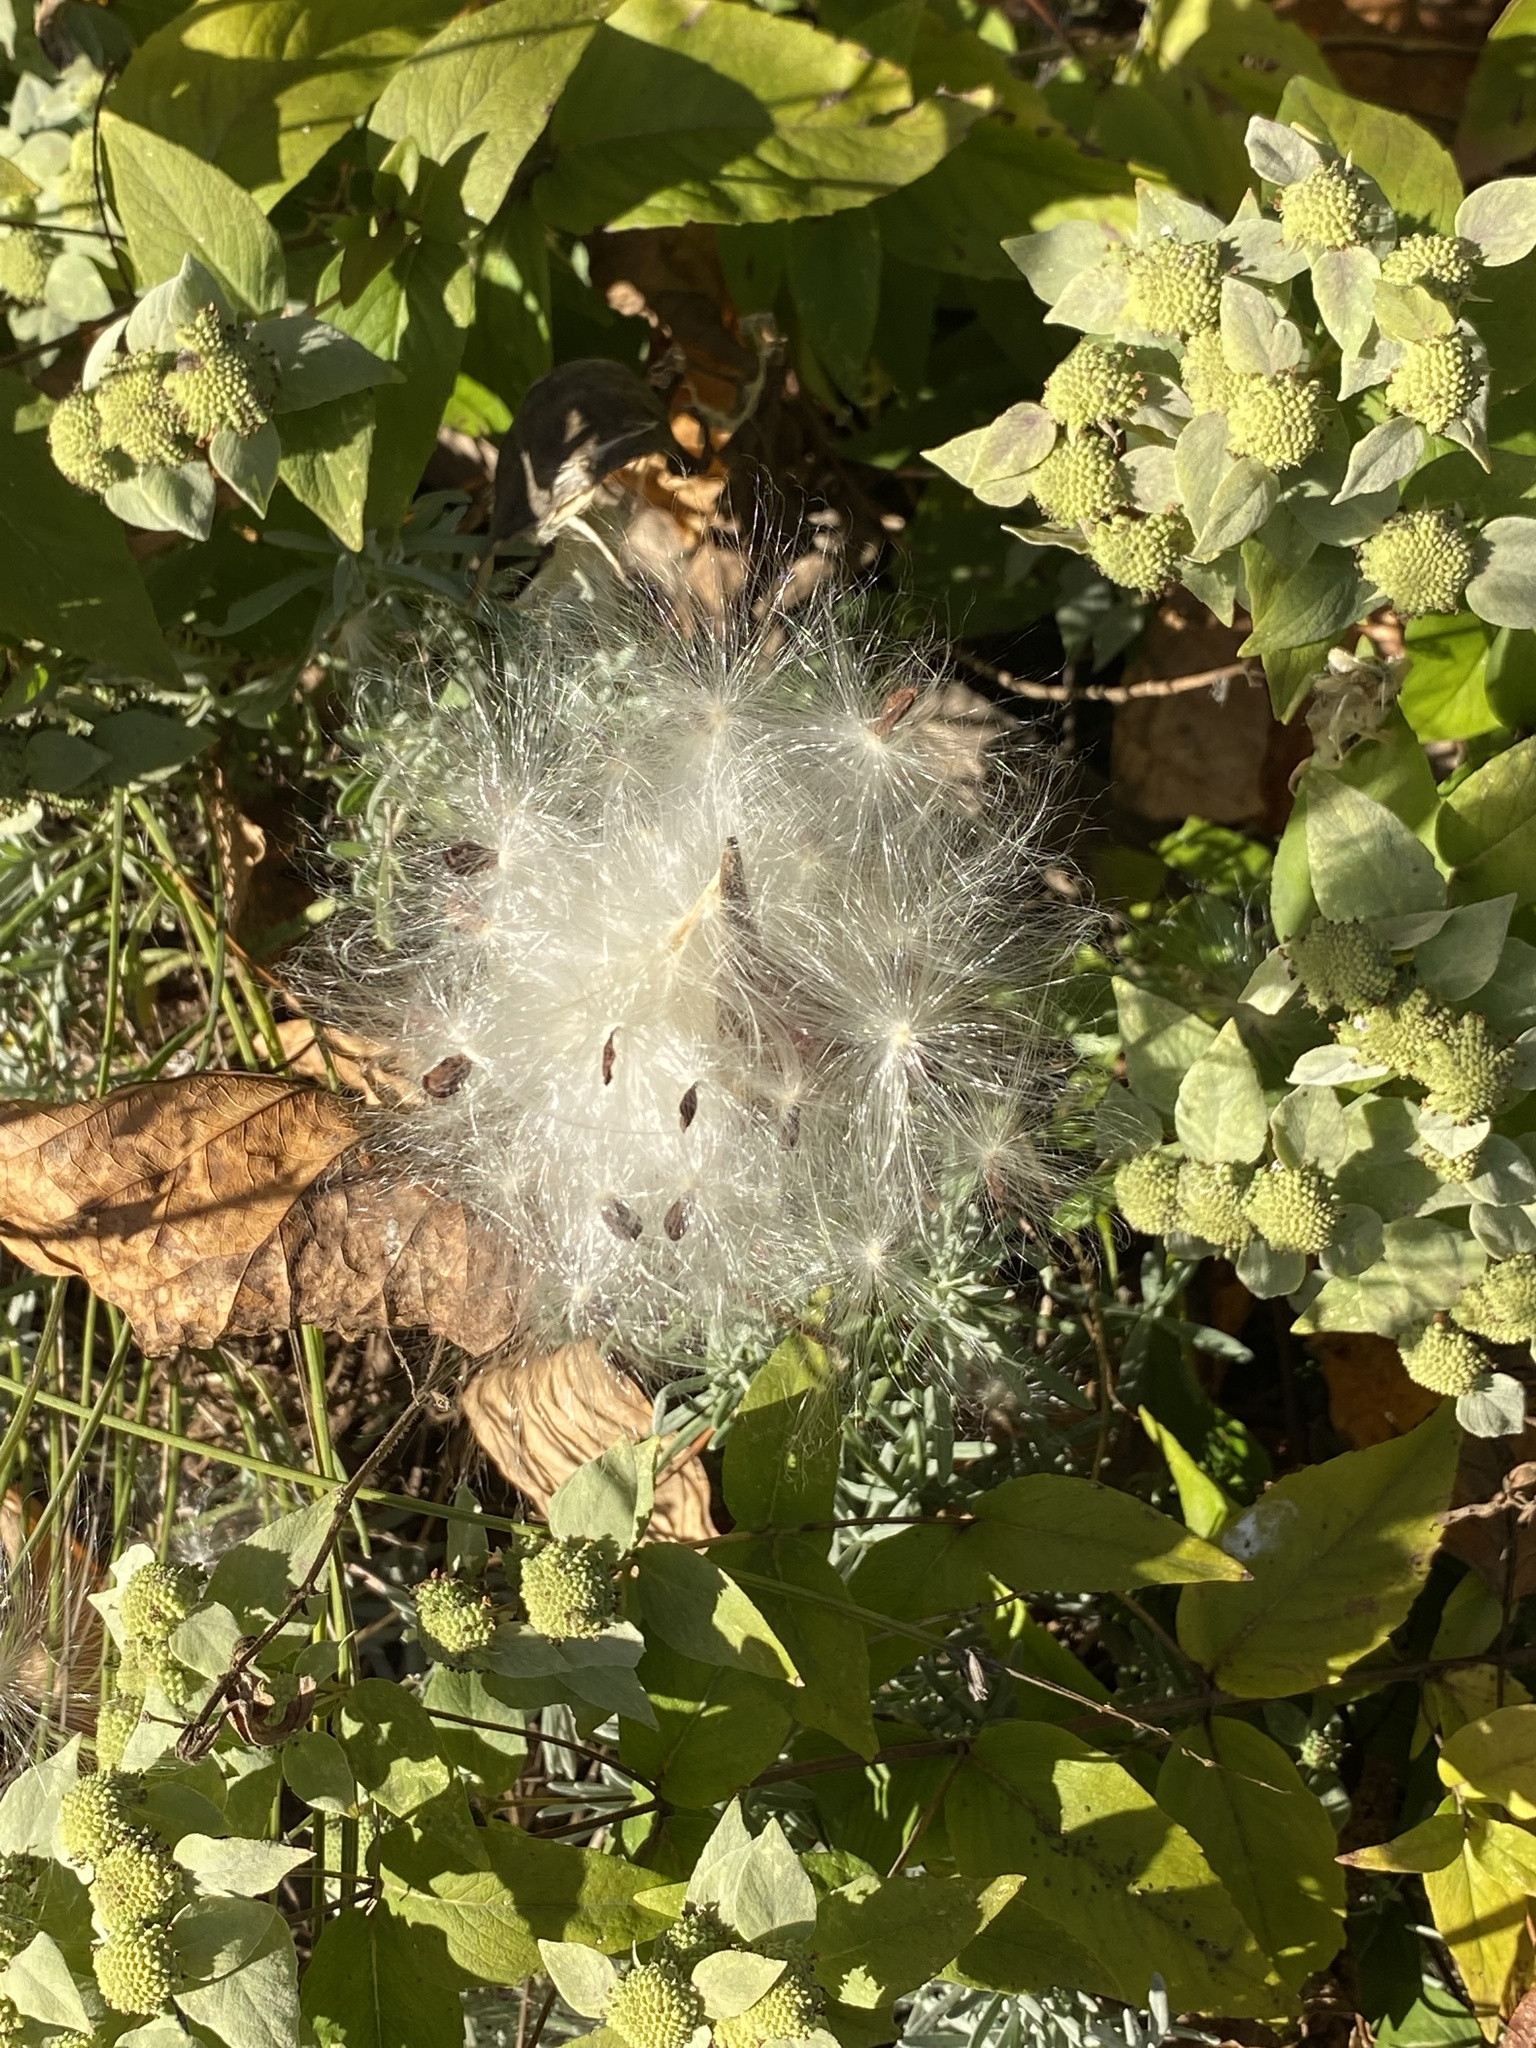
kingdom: Plantae
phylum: Tracheophyta
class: Magnoliopsida
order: Gentianales
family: Apocynaceae
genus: Asclepias
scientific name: Asclepias tuberosa
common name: Butterfly milkweed
